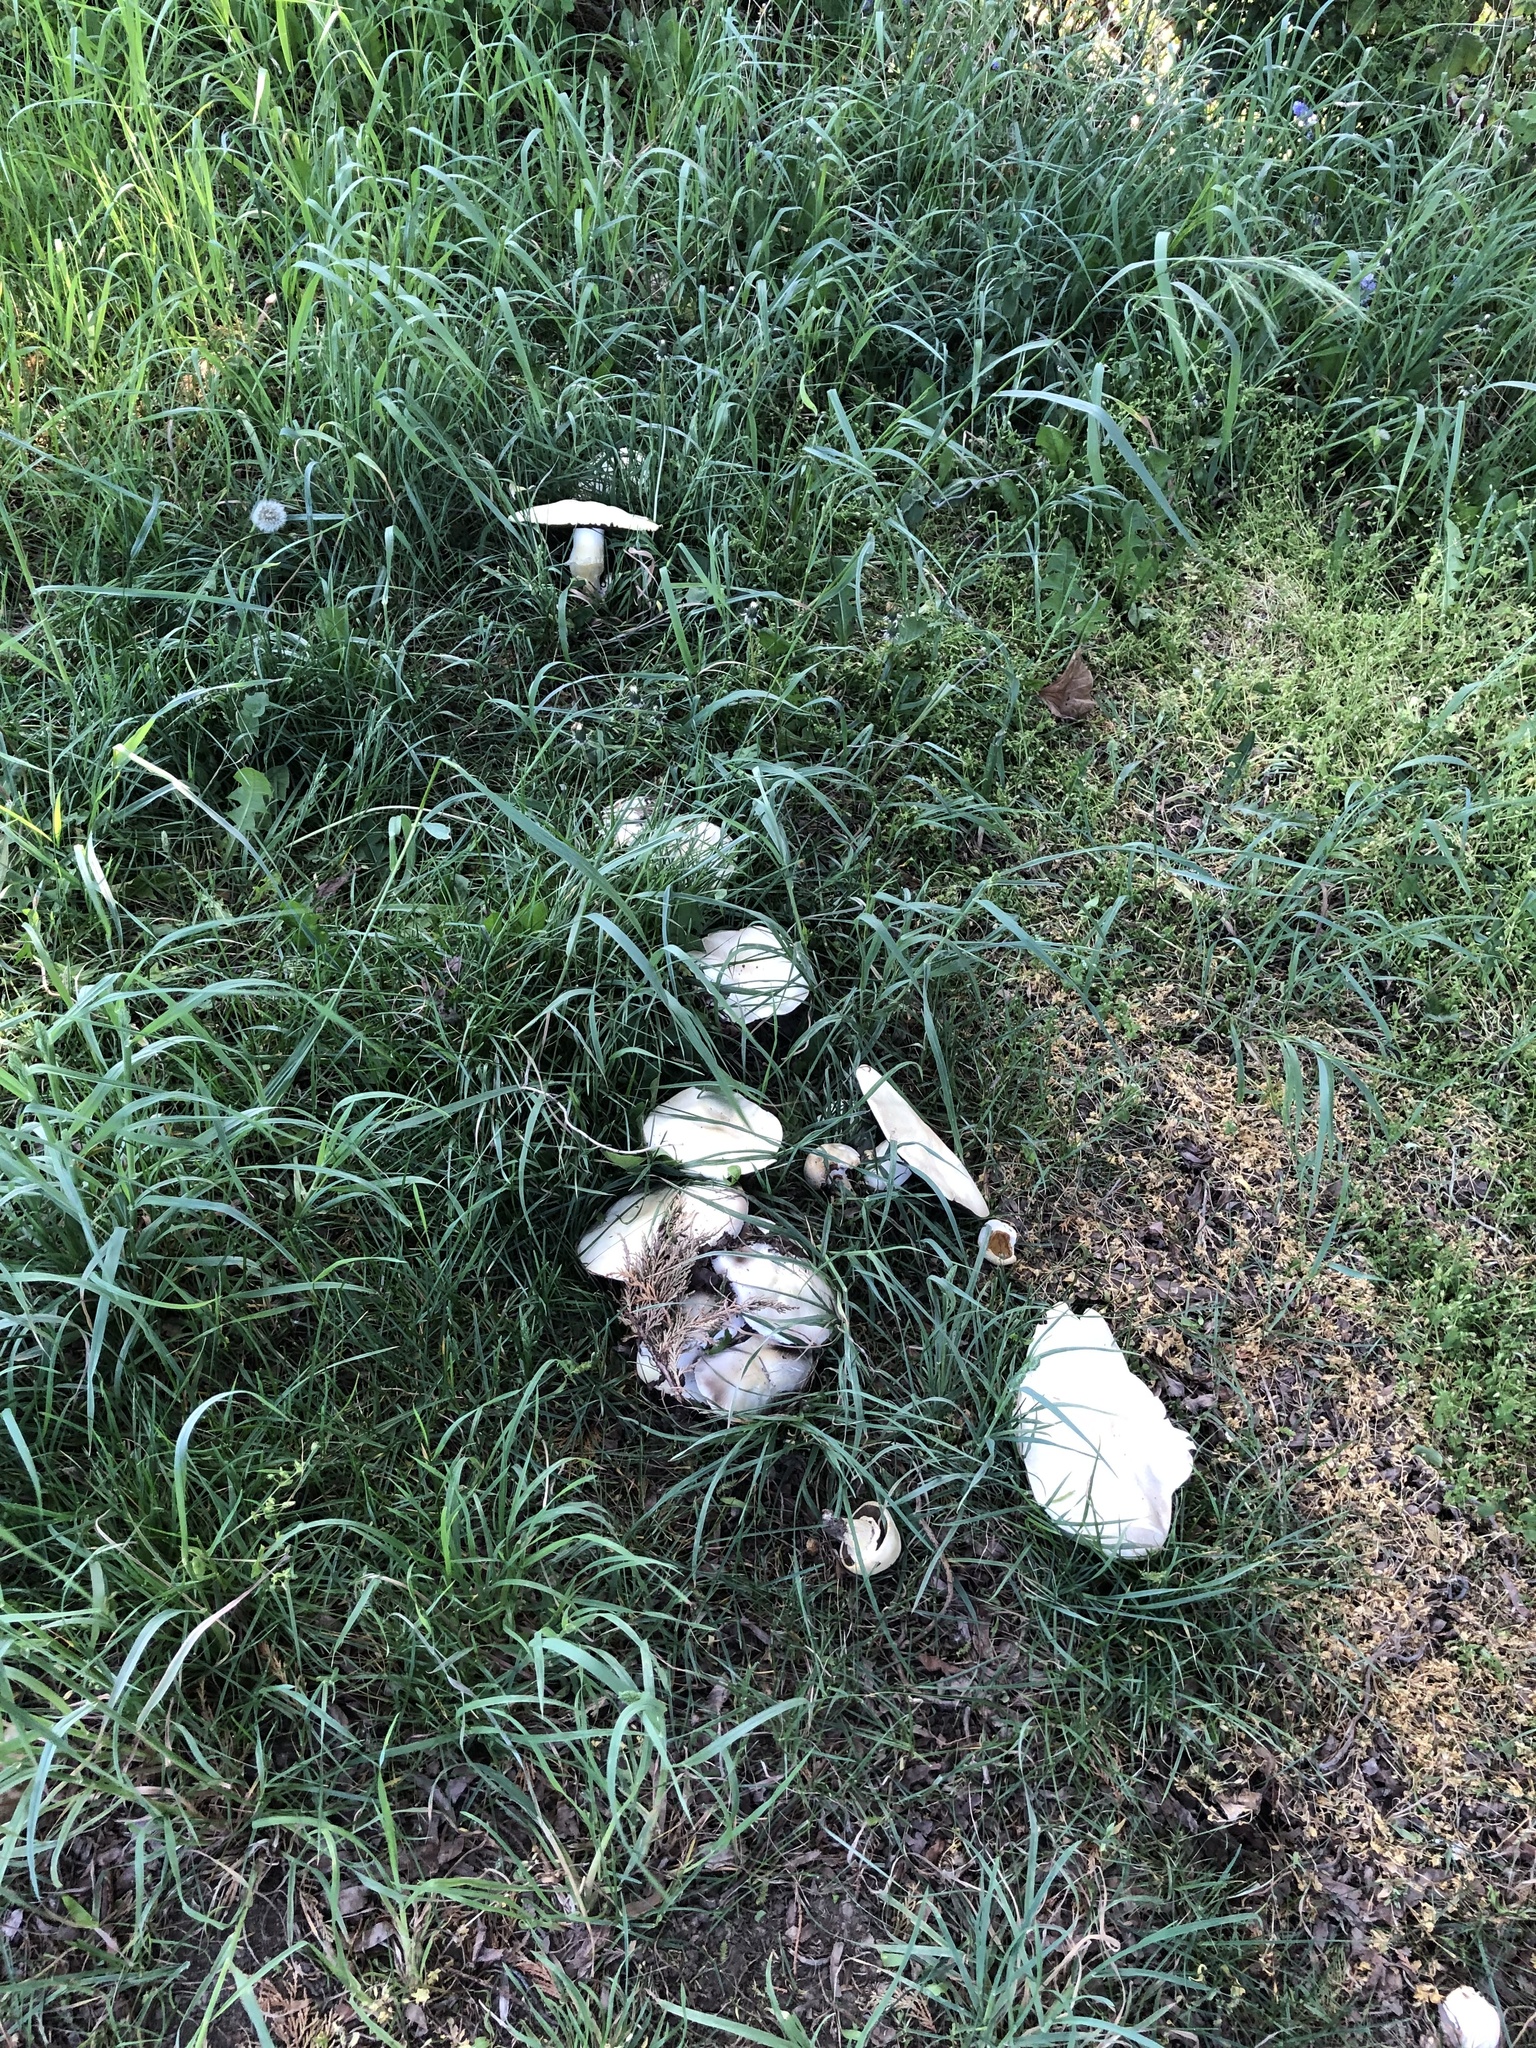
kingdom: Fungi
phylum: Basidiomycota
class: Agaricomycetes
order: Agaricales
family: Agaricaceae
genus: Agaricus
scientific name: Agaricus arvensis
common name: Horse mushroom
